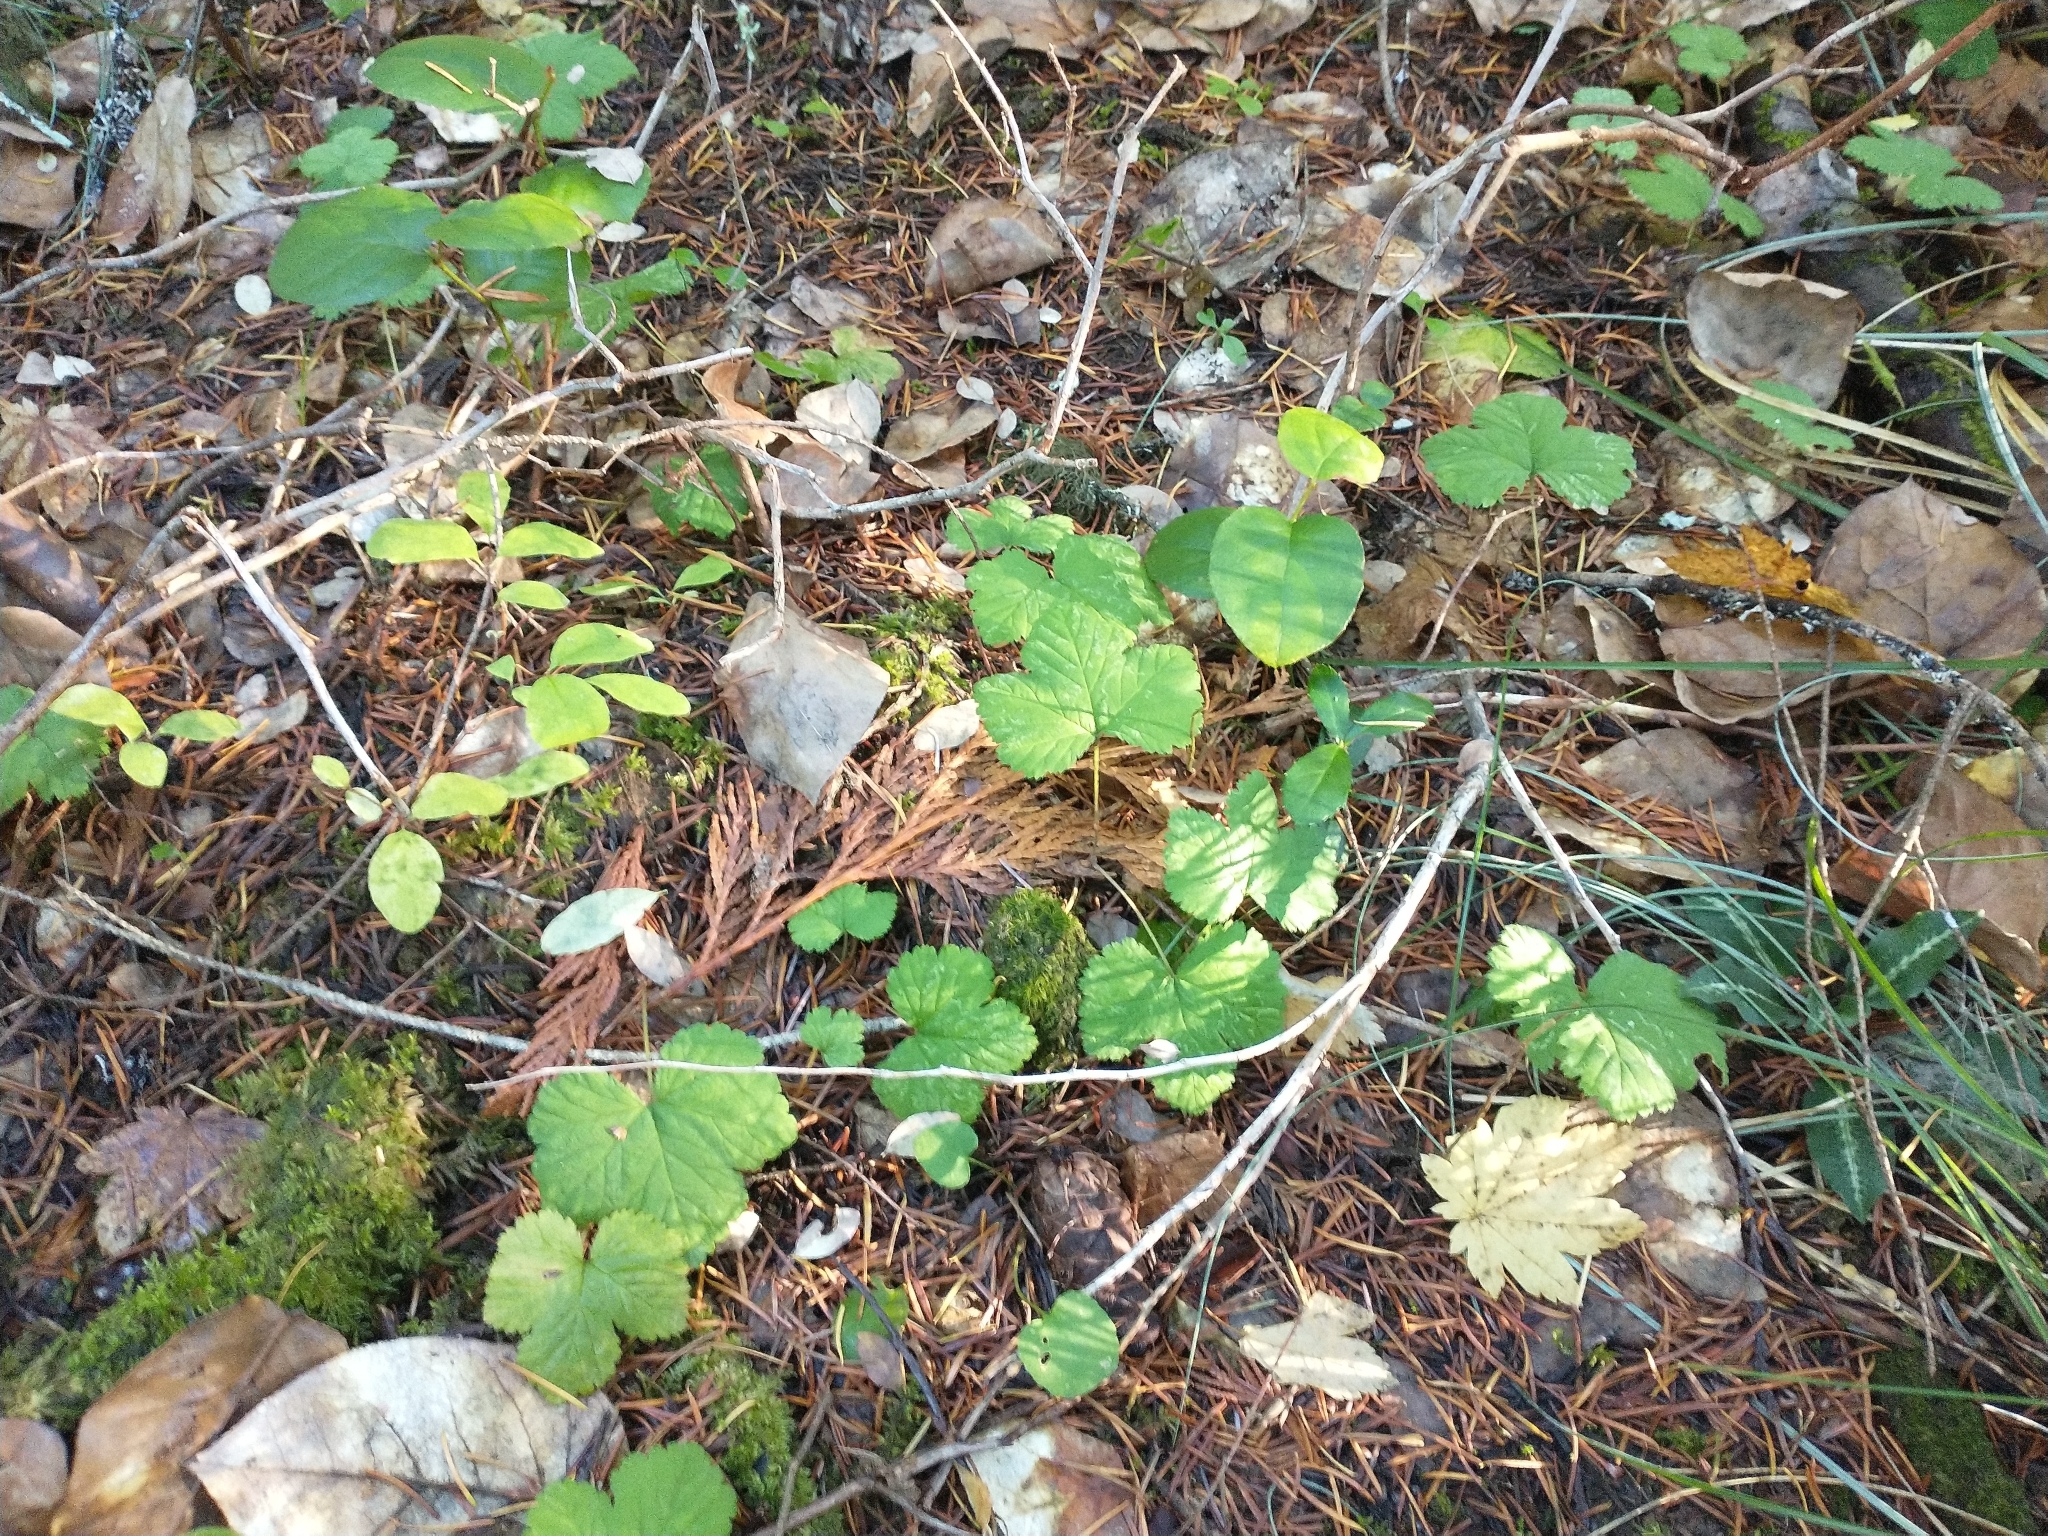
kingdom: Plantae
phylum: Tracheophyta
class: Magnoliopsida
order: Rosales
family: Rosaceae
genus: Rubus
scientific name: Rubus lasiococcus
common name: Dwarf bramble
